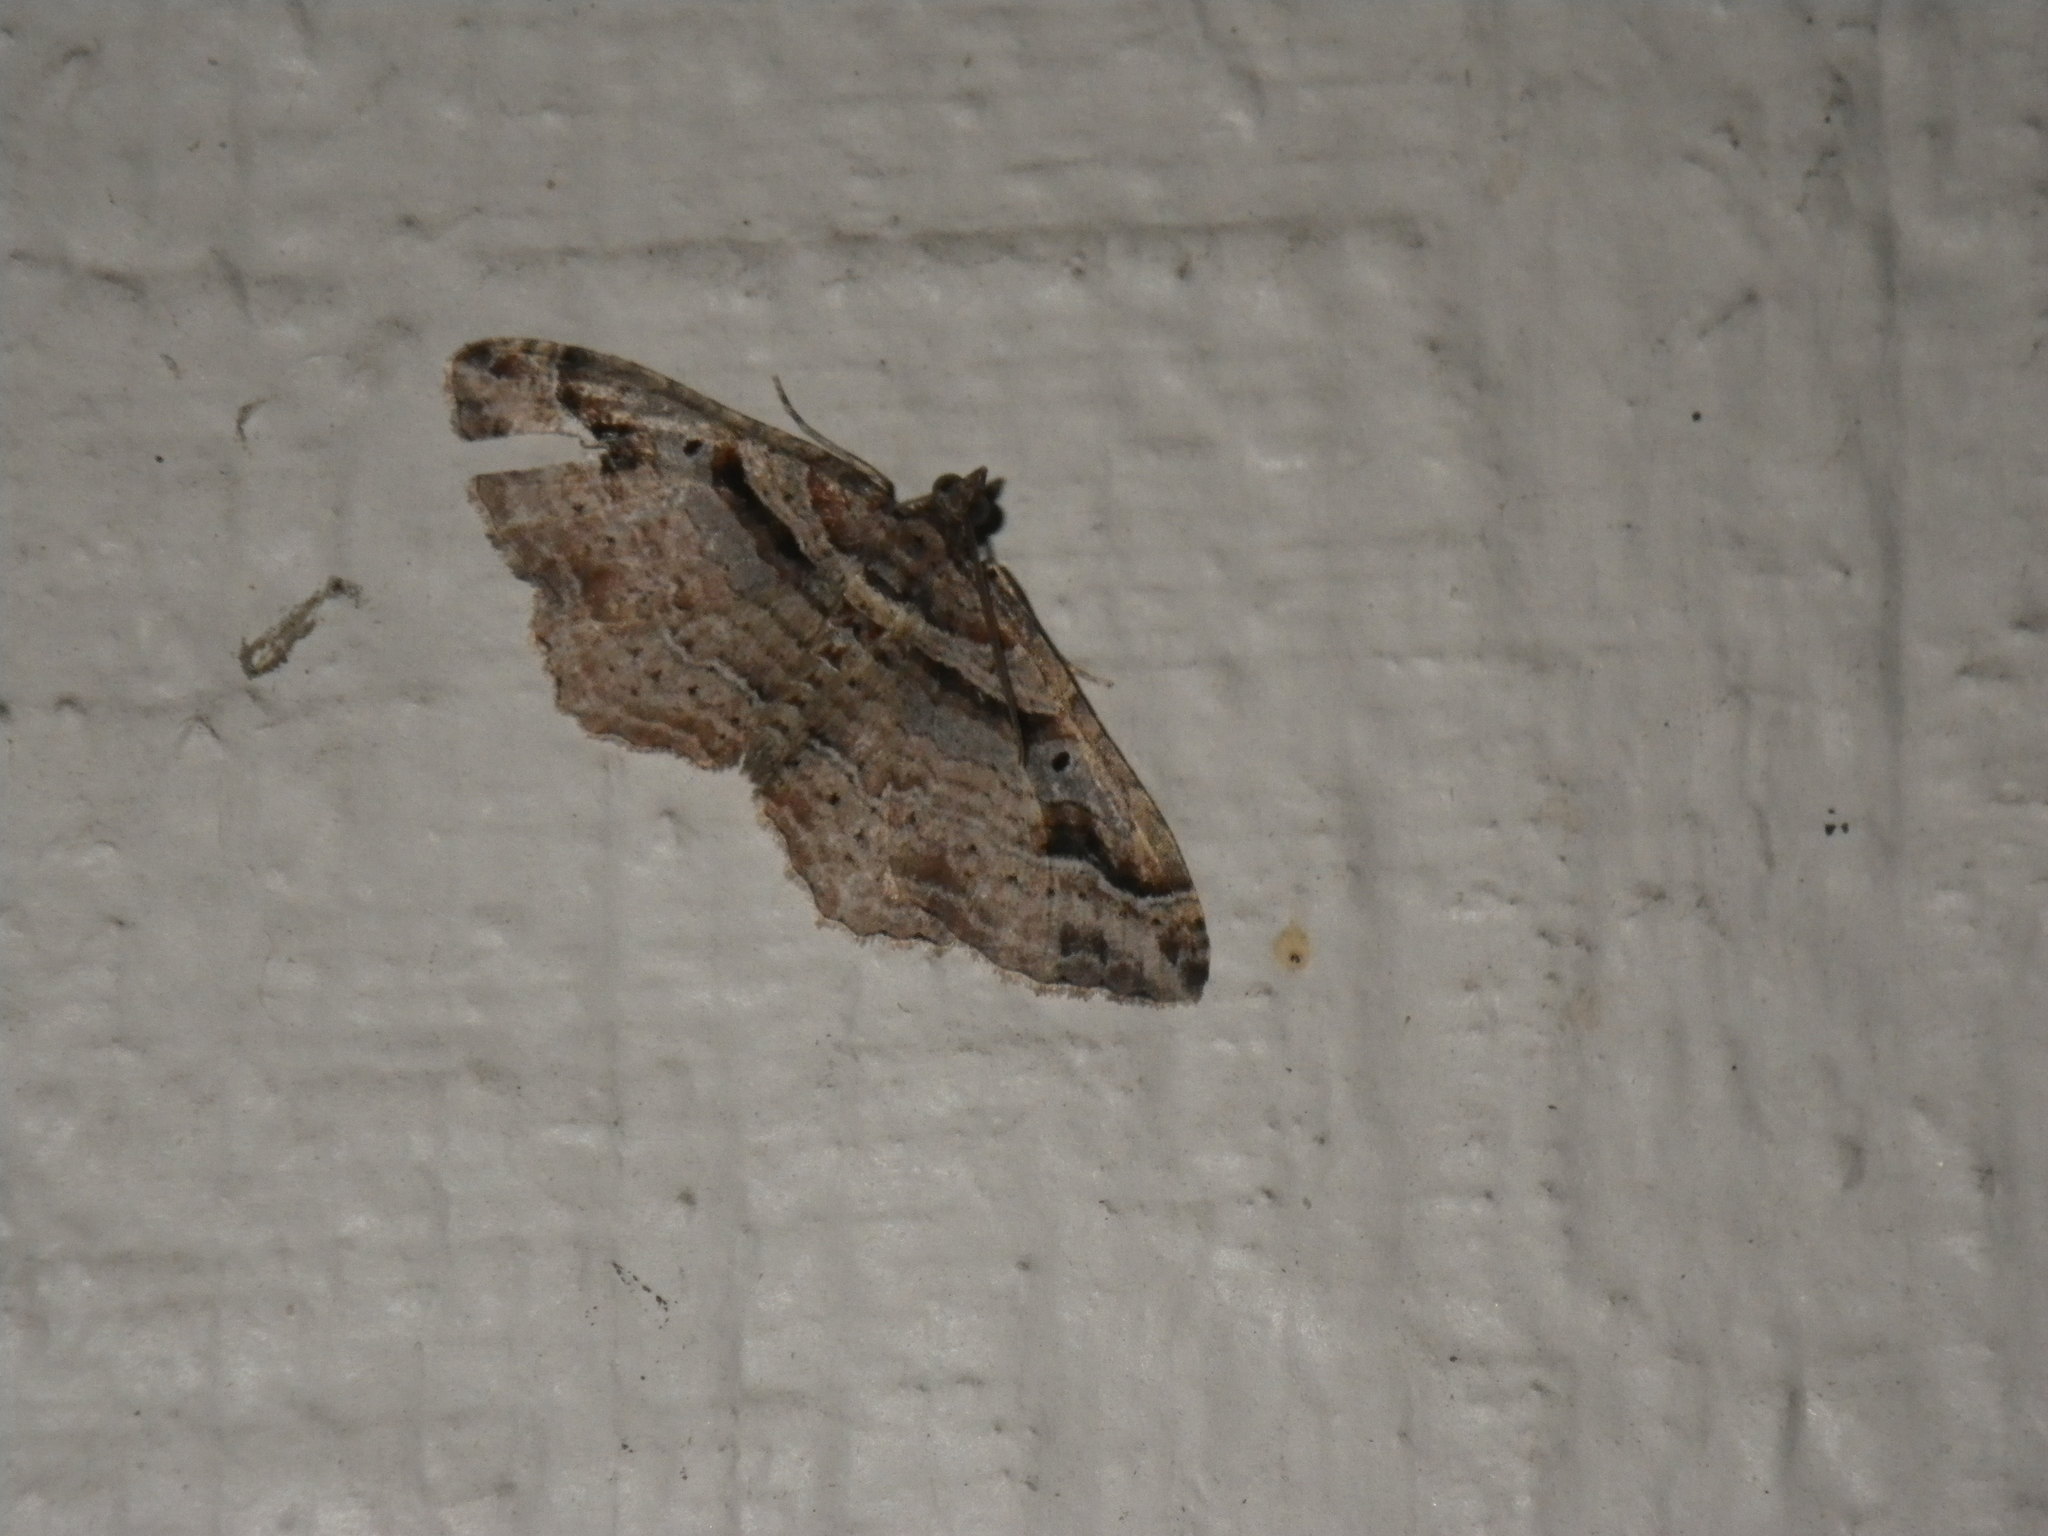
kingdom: Animalia
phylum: Arthropoda
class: Insecta
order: Lepidoptera
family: Geometridae
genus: Costaconvexa
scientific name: Costaconvexa centrostrigaria
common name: Bent-line carpet
